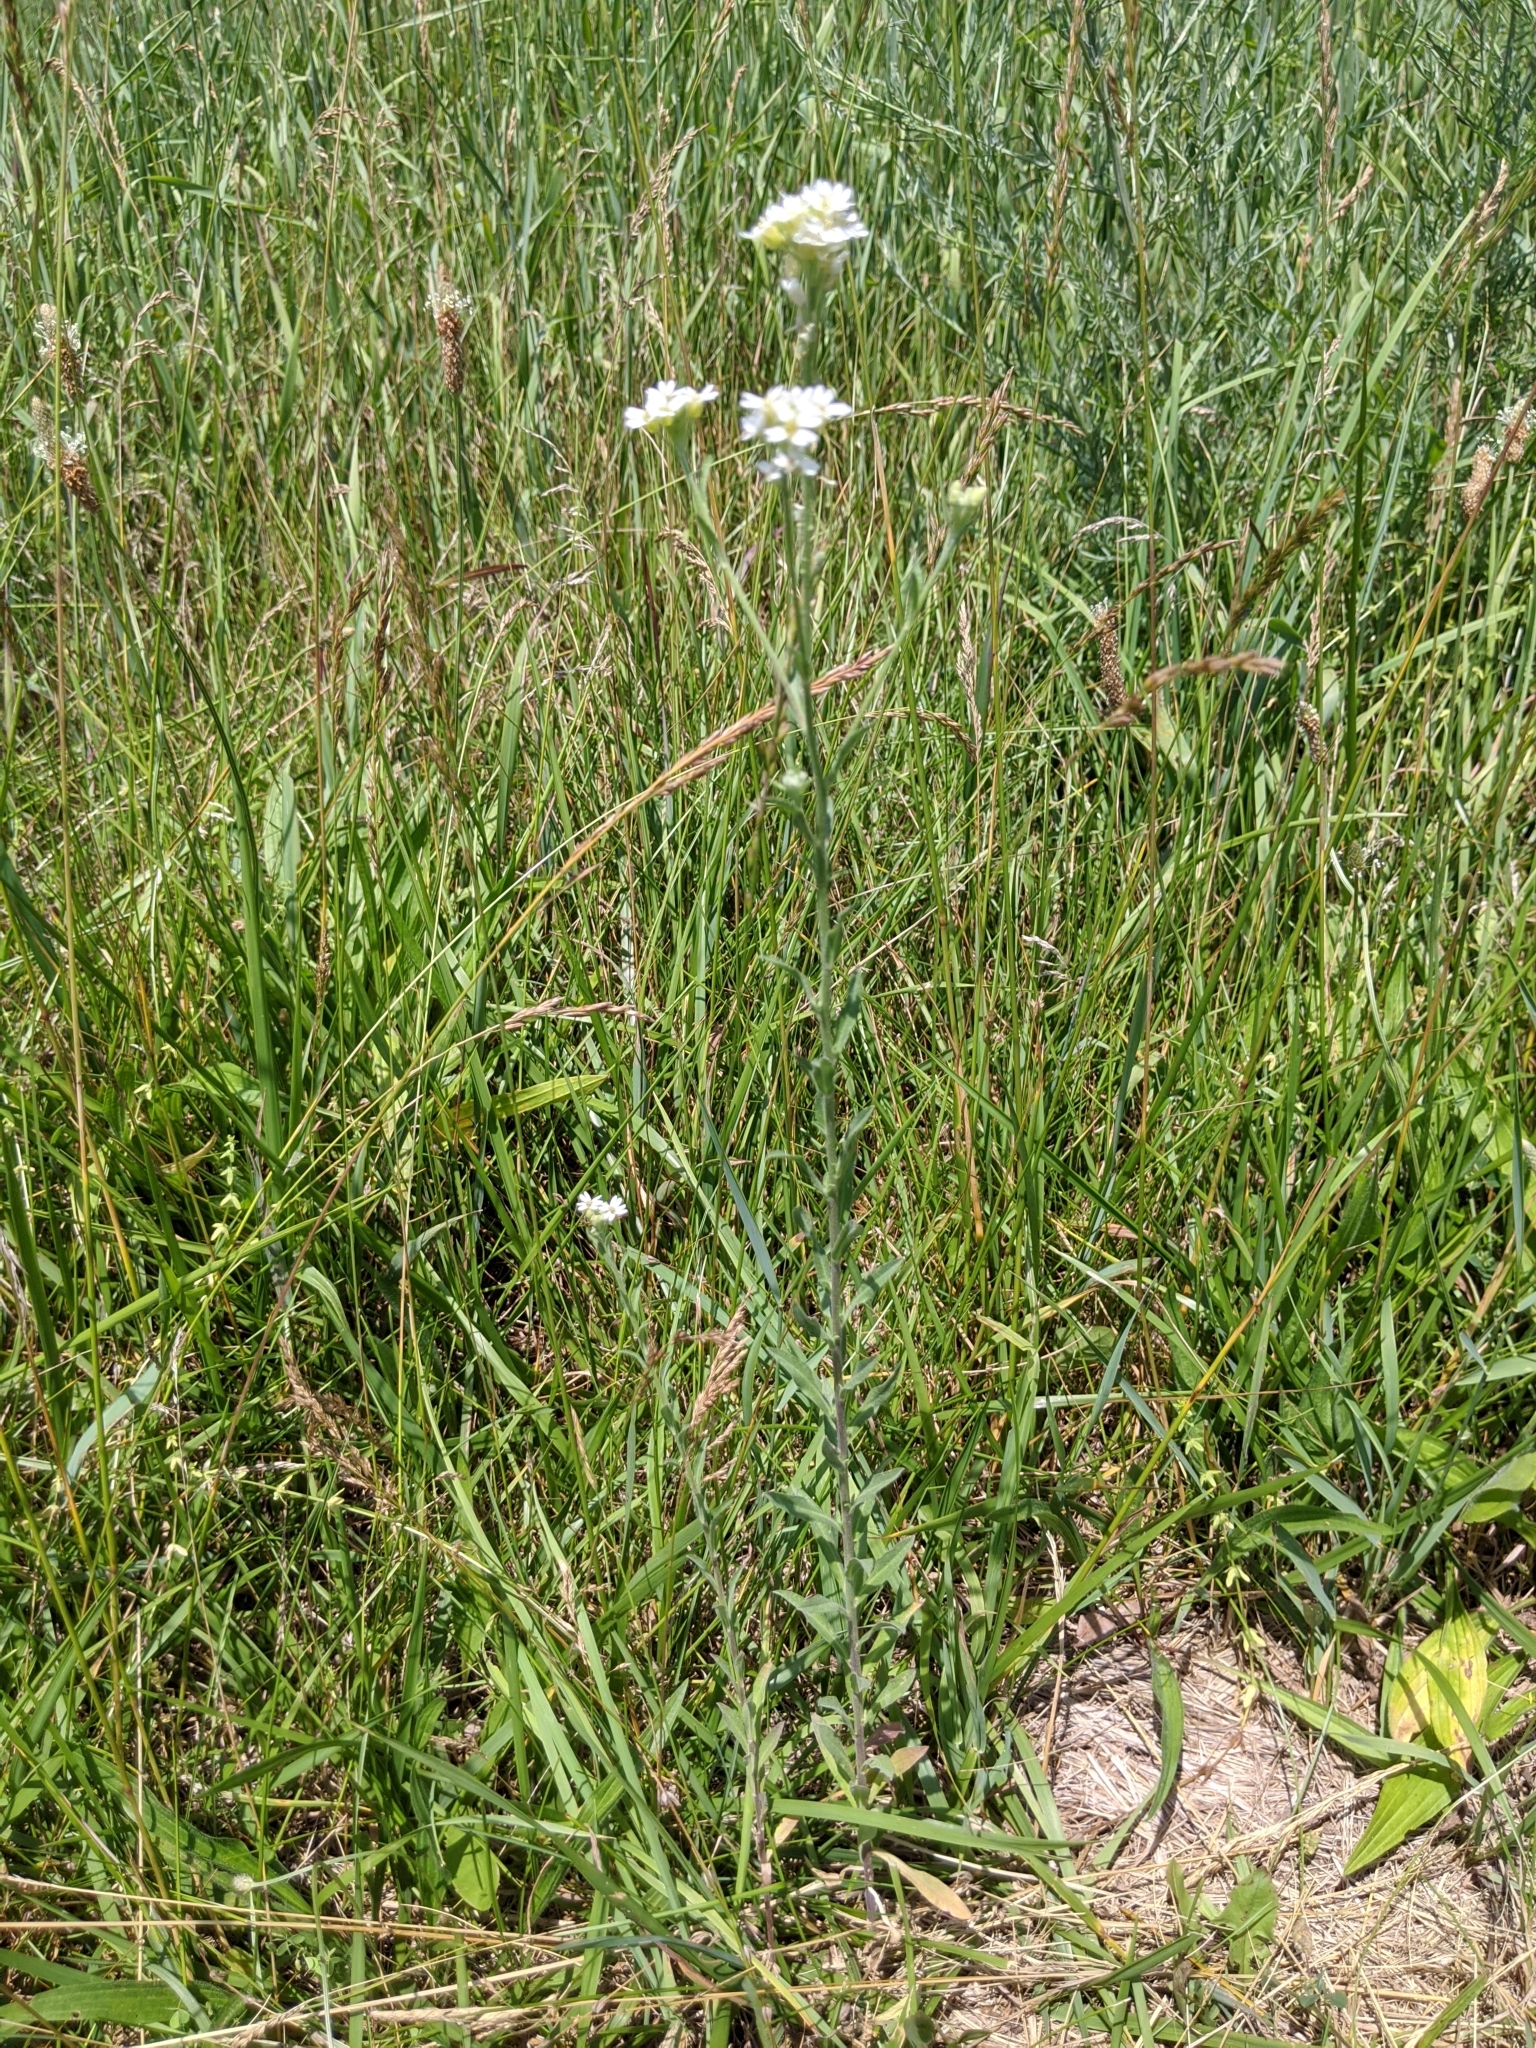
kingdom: Plantae
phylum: Tracheophyta
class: Magnoliopsida
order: Brassicales
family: Brassicaceae
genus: Berteroa
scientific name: Berteroa incana
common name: Hoary alison
